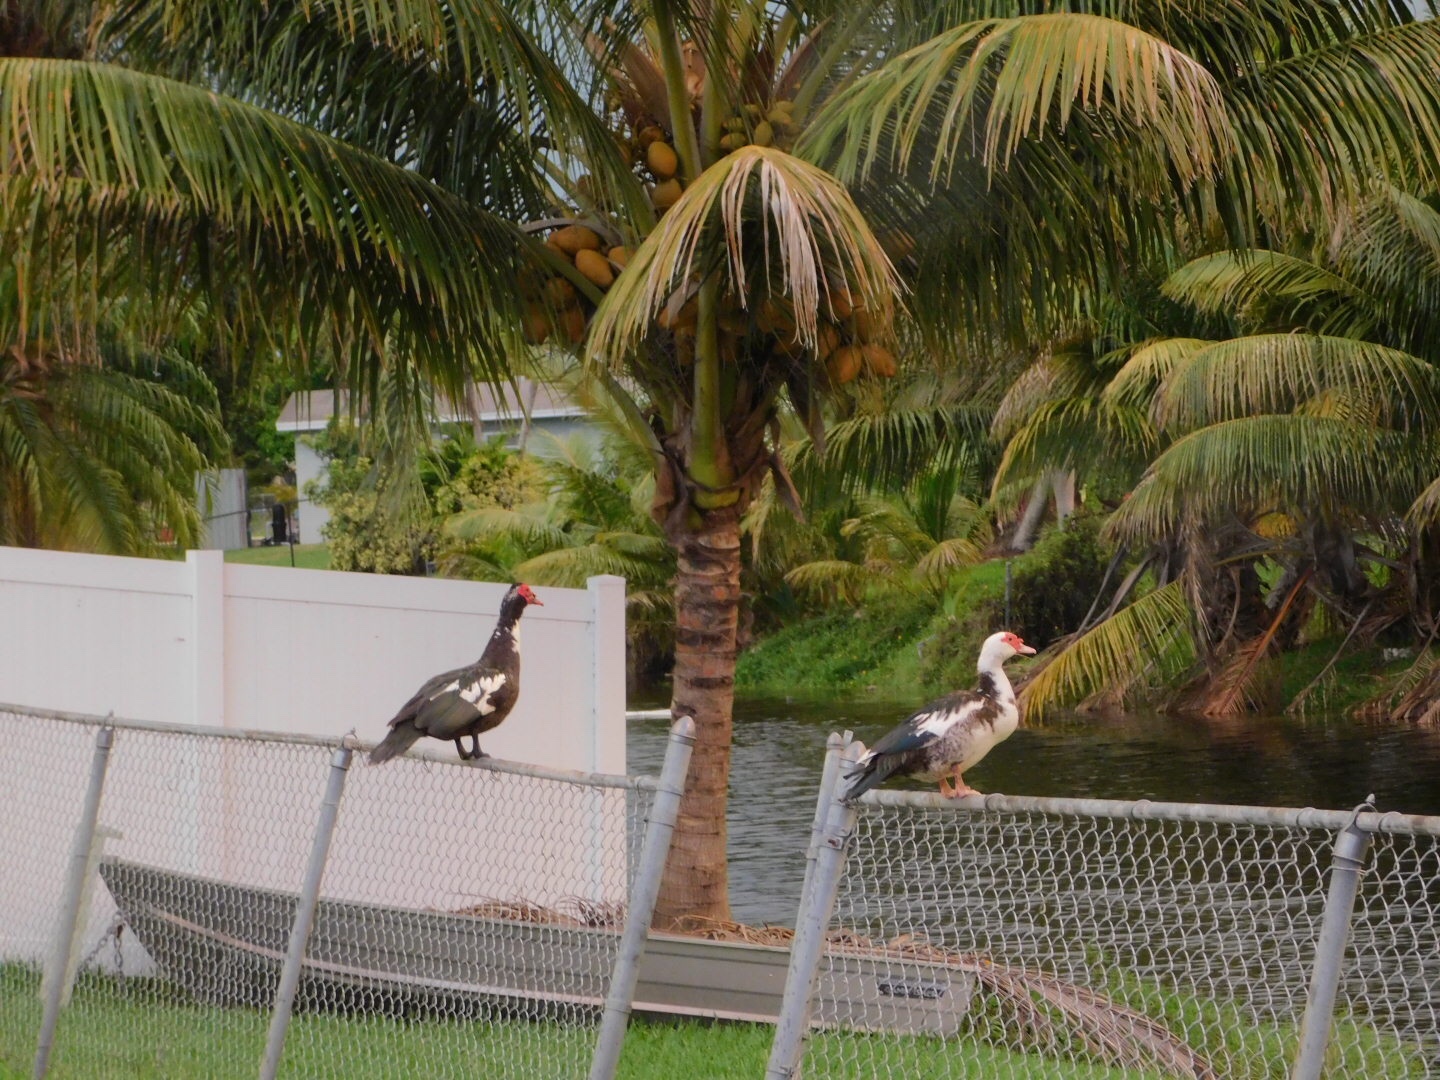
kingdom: Animalia
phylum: Chordata
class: Aves
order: Anseriformes
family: Anatidae
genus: Cairina
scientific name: Cairina moschata
